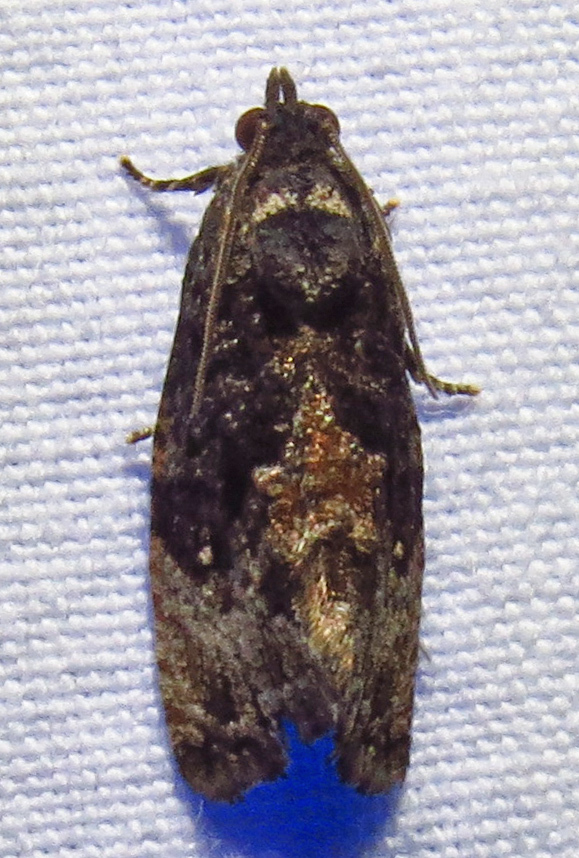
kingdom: Animalia
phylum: Arthropoda
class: Insecta
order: Lepidoptera
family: Tortricidae
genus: Gymnandrosoma
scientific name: Gymnandrosoma punctidiscanum
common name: Dotted ecdytolopha moth
